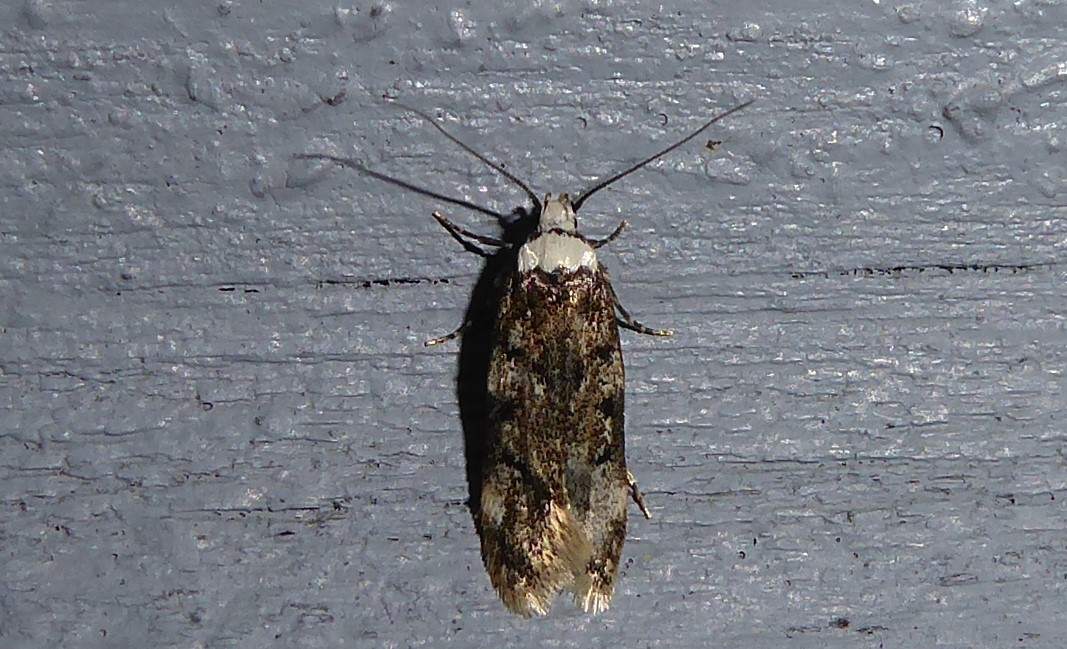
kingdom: Animalia
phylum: Arthropoda
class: Insecta
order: Lepidoptera
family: Oecophoridae
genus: Endrosis
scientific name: Endrosis sarcitrella
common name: White-shouldered house moth
